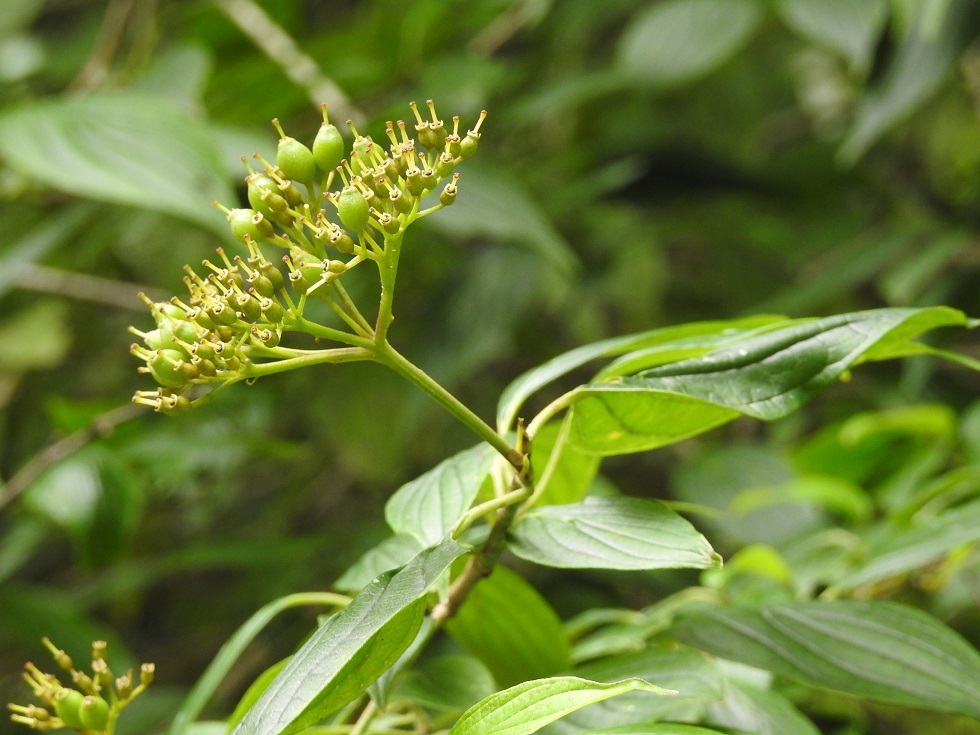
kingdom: Plantae
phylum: Tracheophyta
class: Magnoliopsida
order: Cornales
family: Cornaceae
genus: Cornus
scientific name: Cornus excelsa
